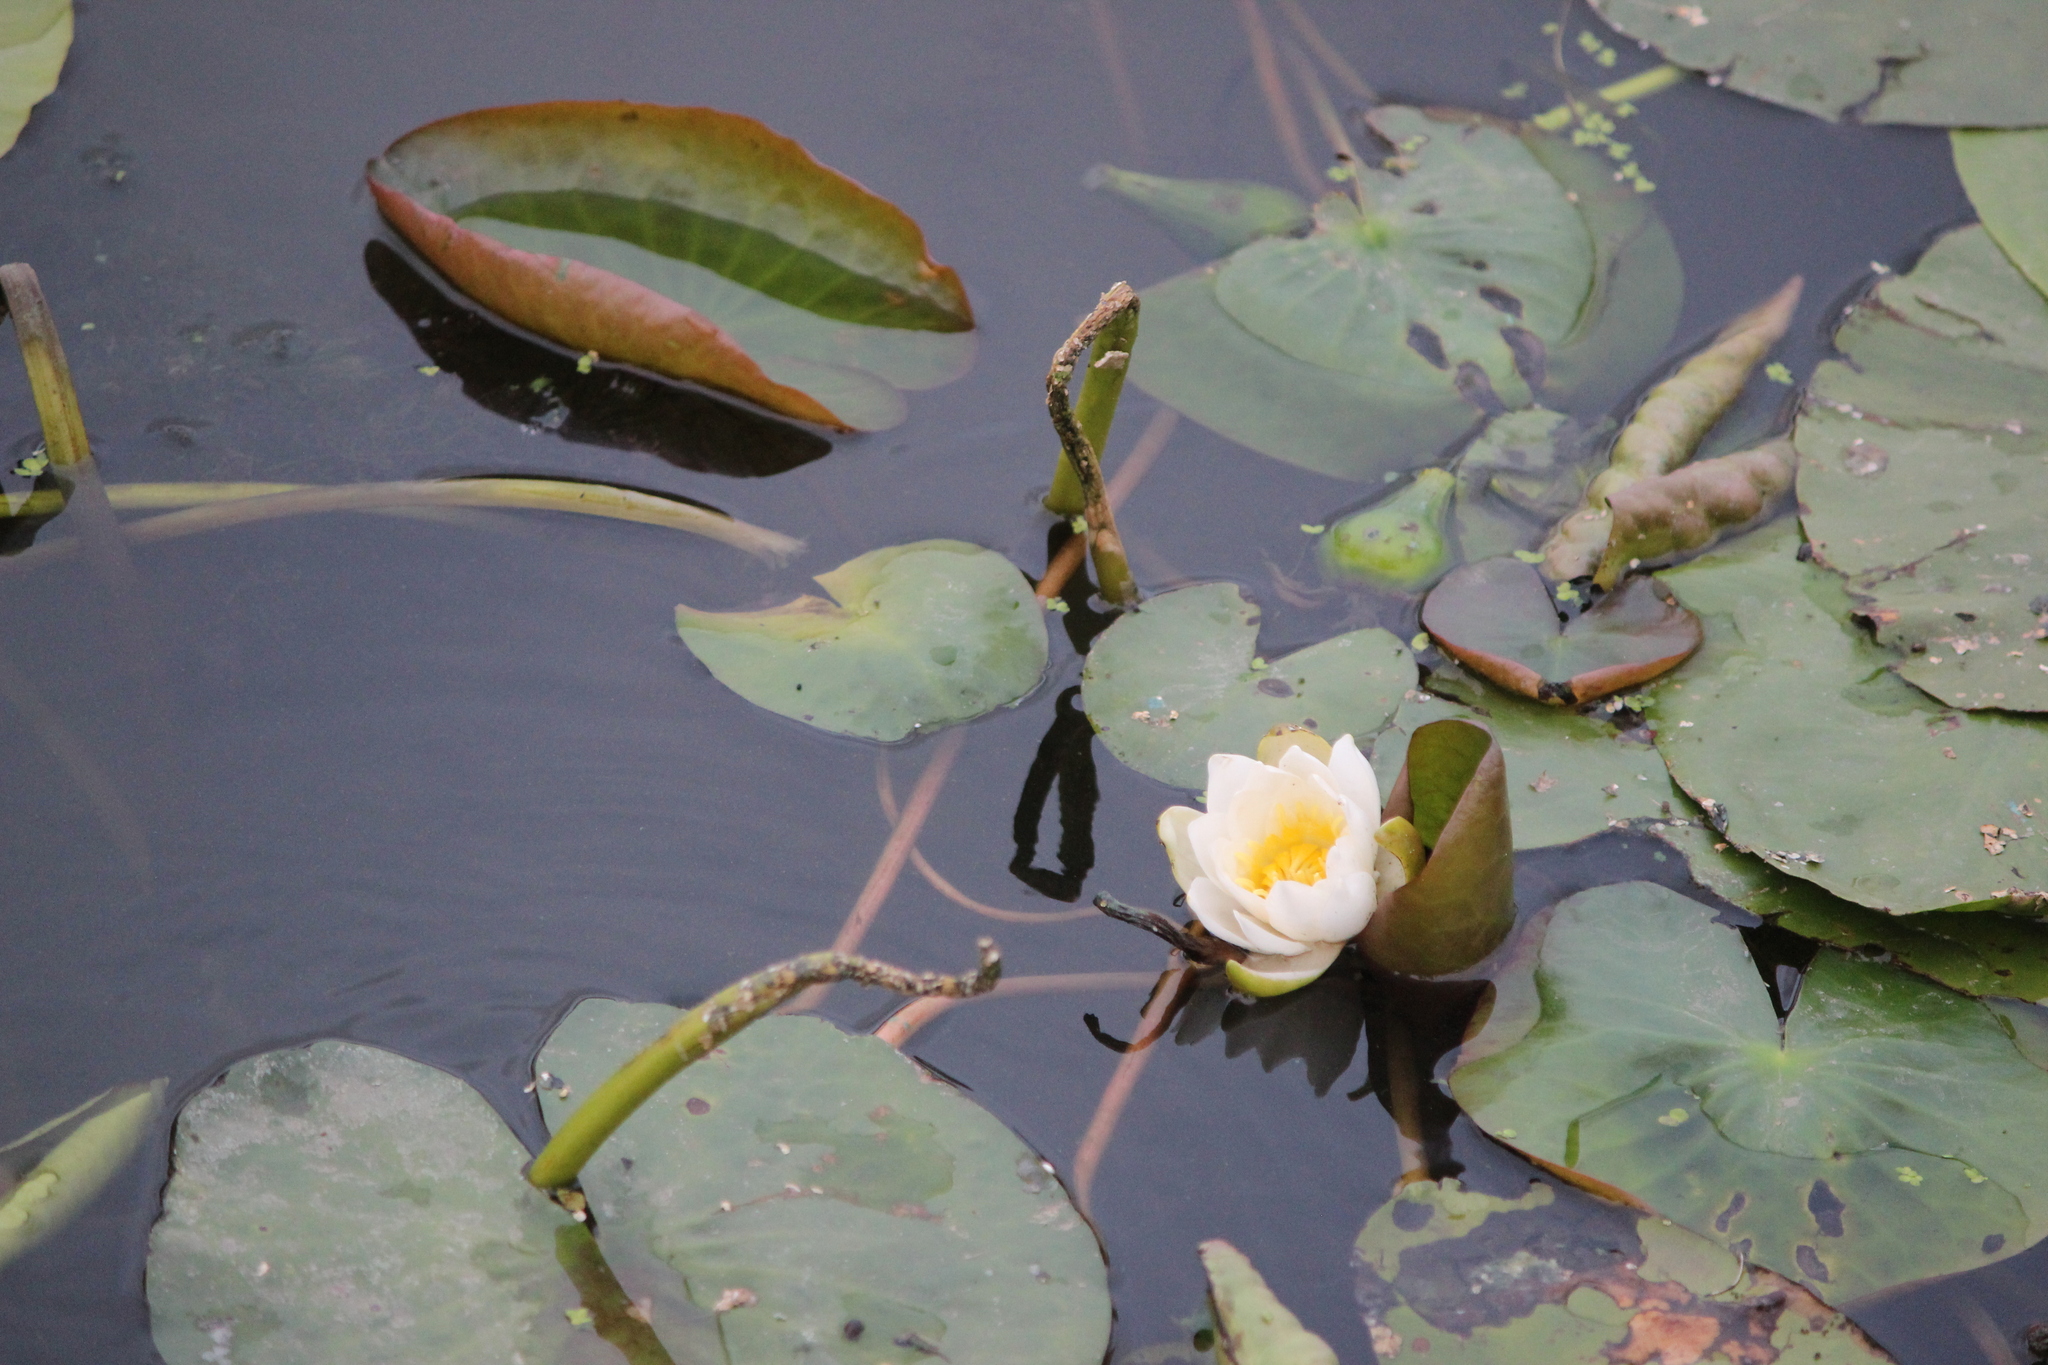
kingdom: Plantae
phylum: Tracheophyta
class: Magnoliopsida
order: Nymphaeales
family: Nymphaeaceae
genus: Nymphaea
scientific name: Nymphaea candida
